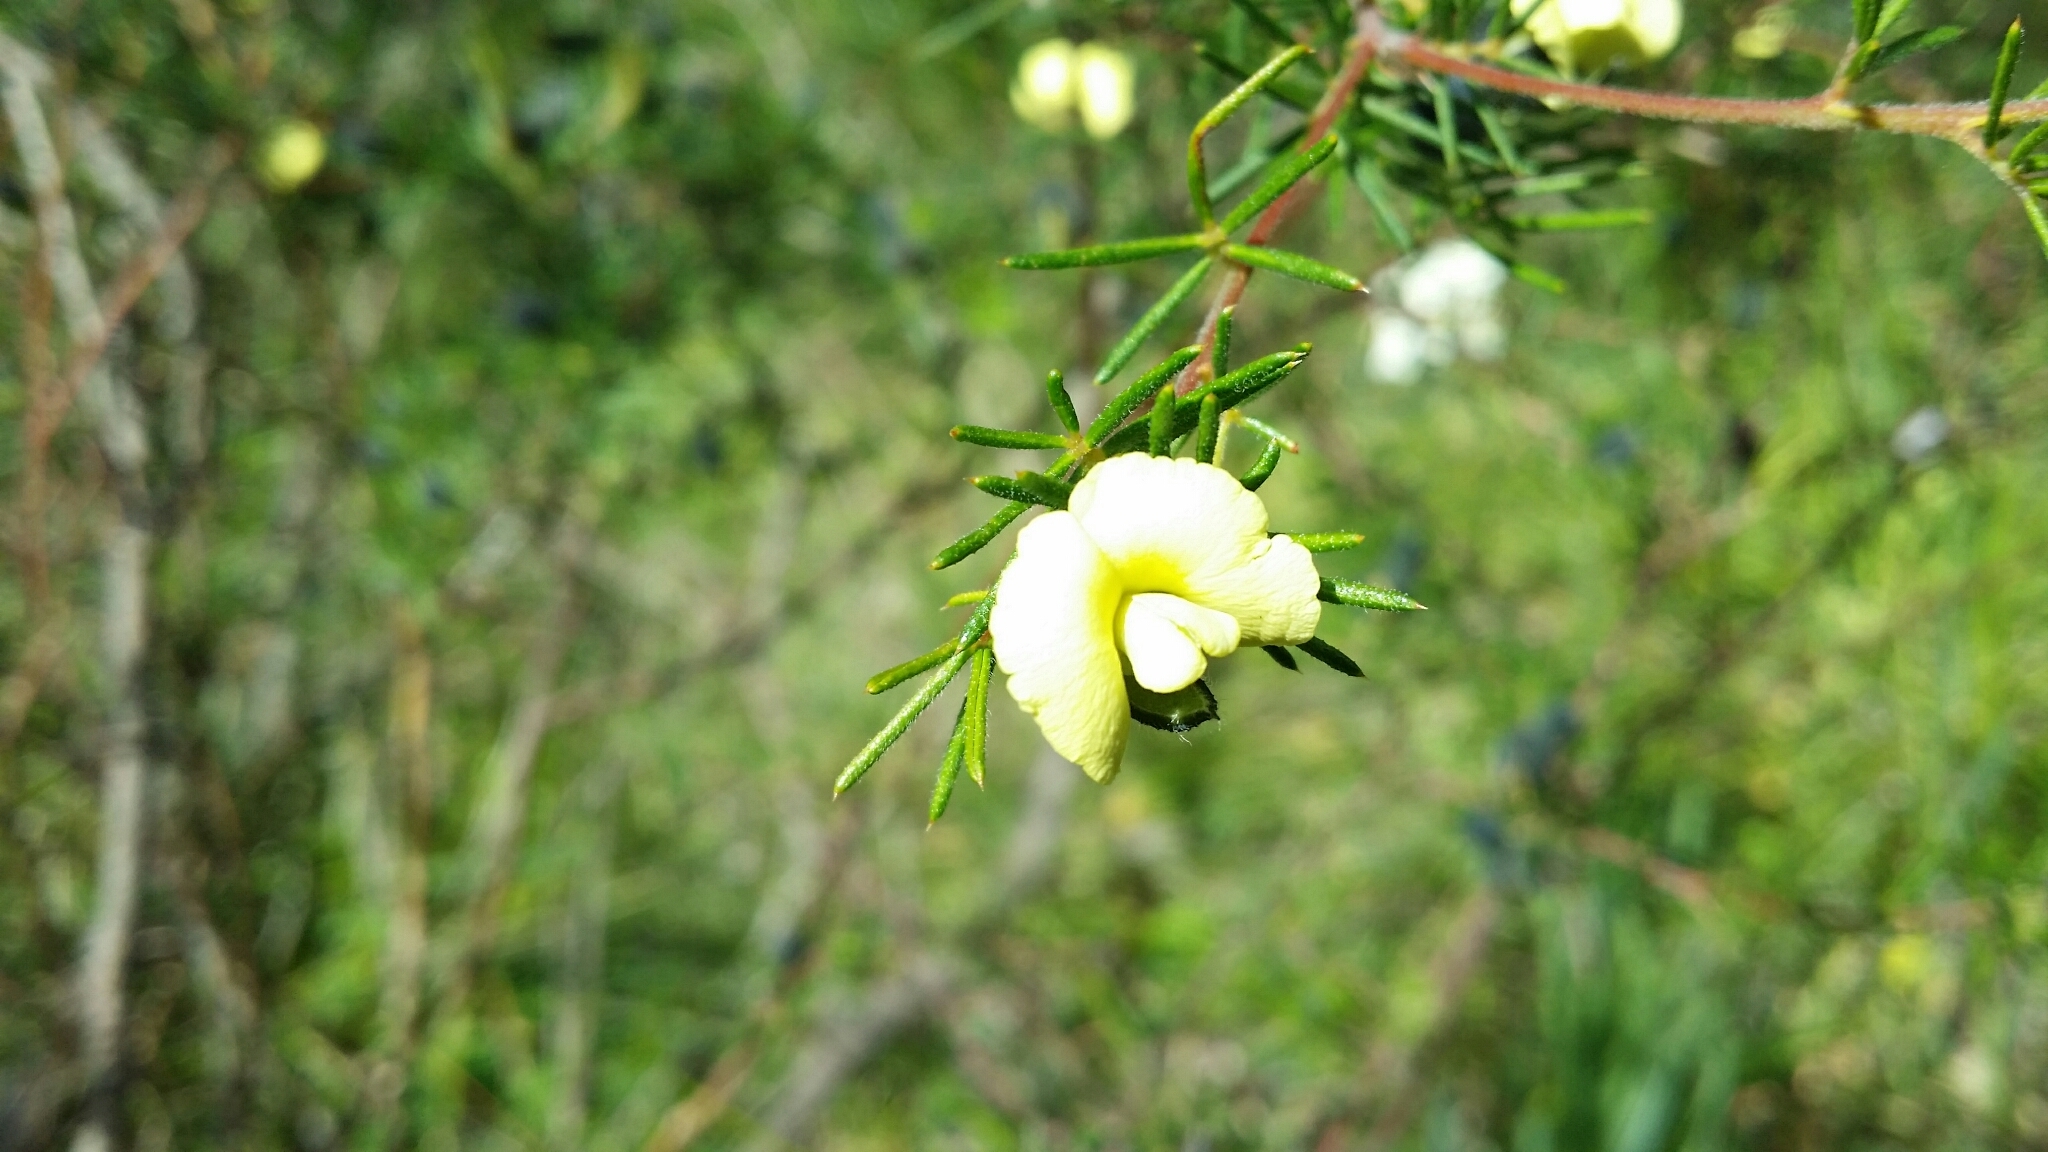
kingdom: Plantae
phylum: Tracheophyta
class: Magnoliopsida
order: Fabales
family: Fabaceae
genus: Gompholobium
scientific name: Gompholobium tomentosum
